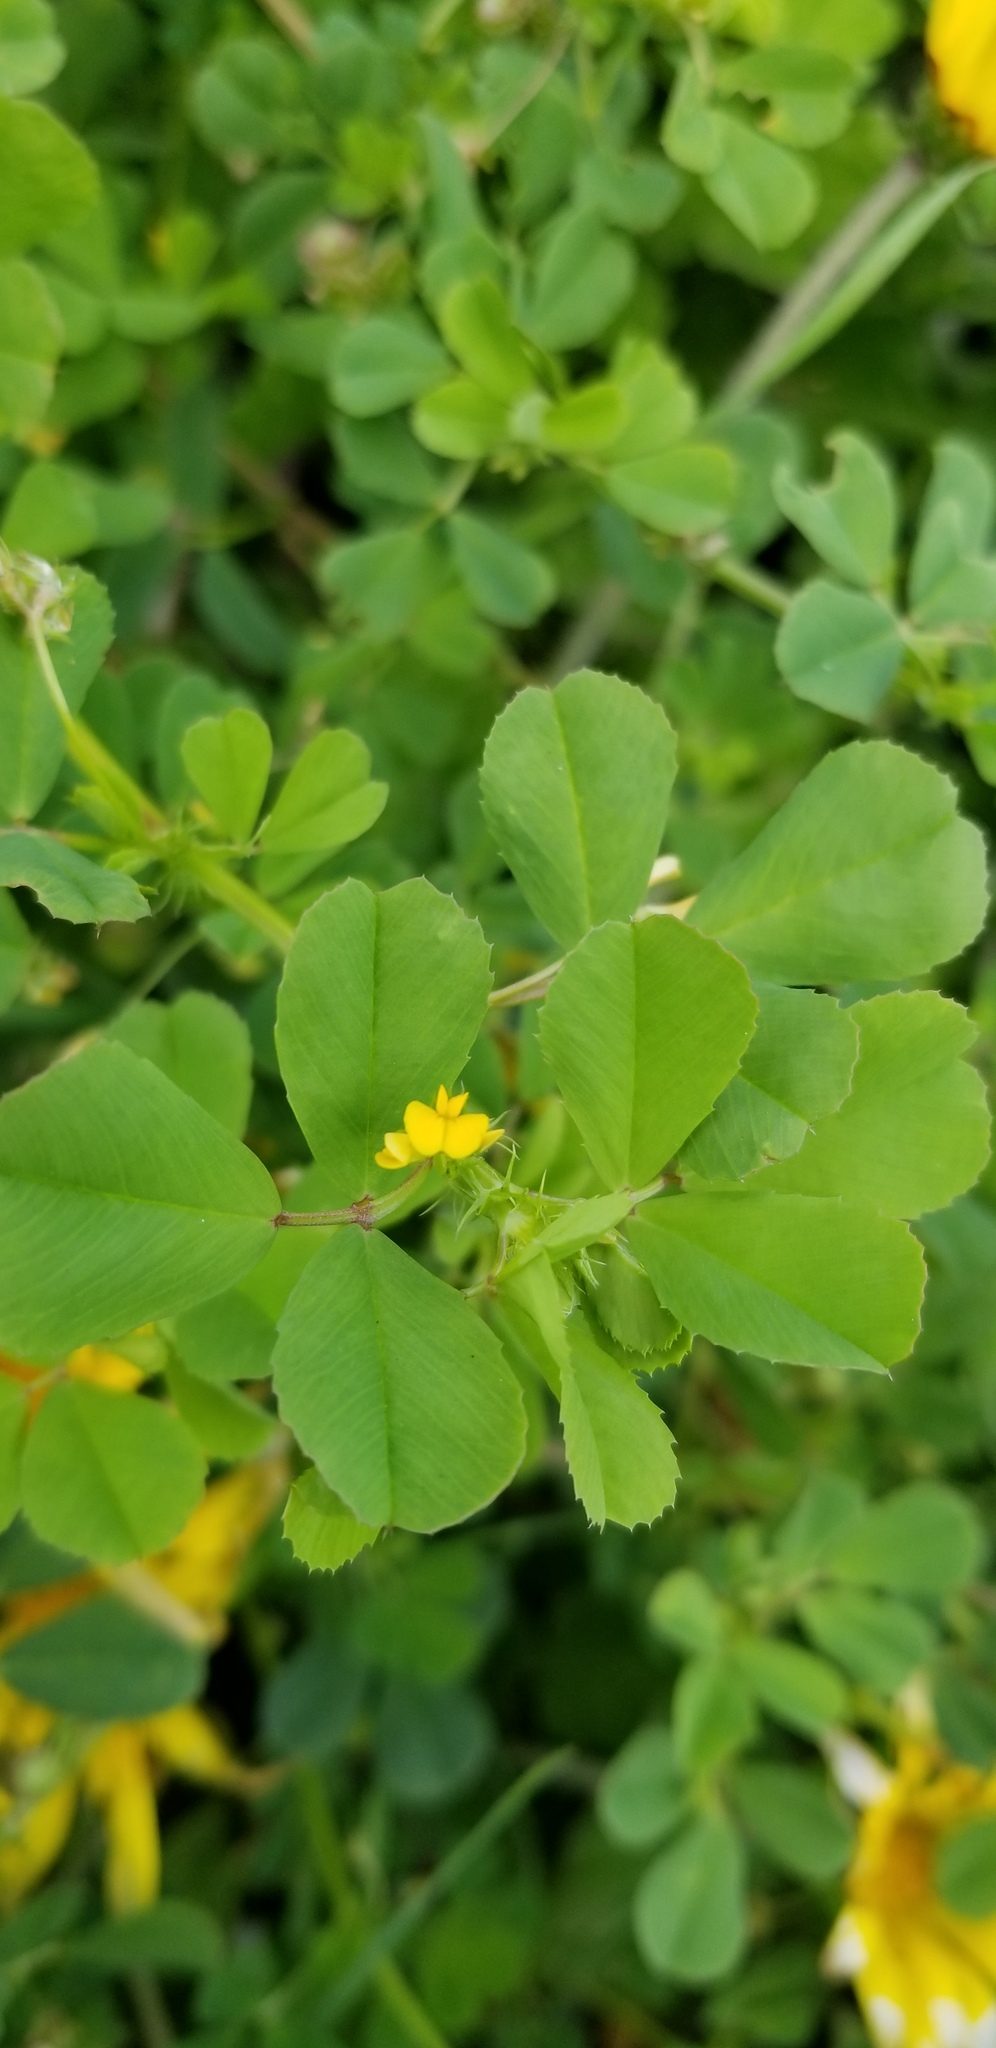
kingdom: Plantae
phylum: Tracheophyta
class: Magnoliopsida
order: Fabales
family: Fabaceae
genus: Medicago
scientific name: Medicago polymorpha
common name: Burclover
